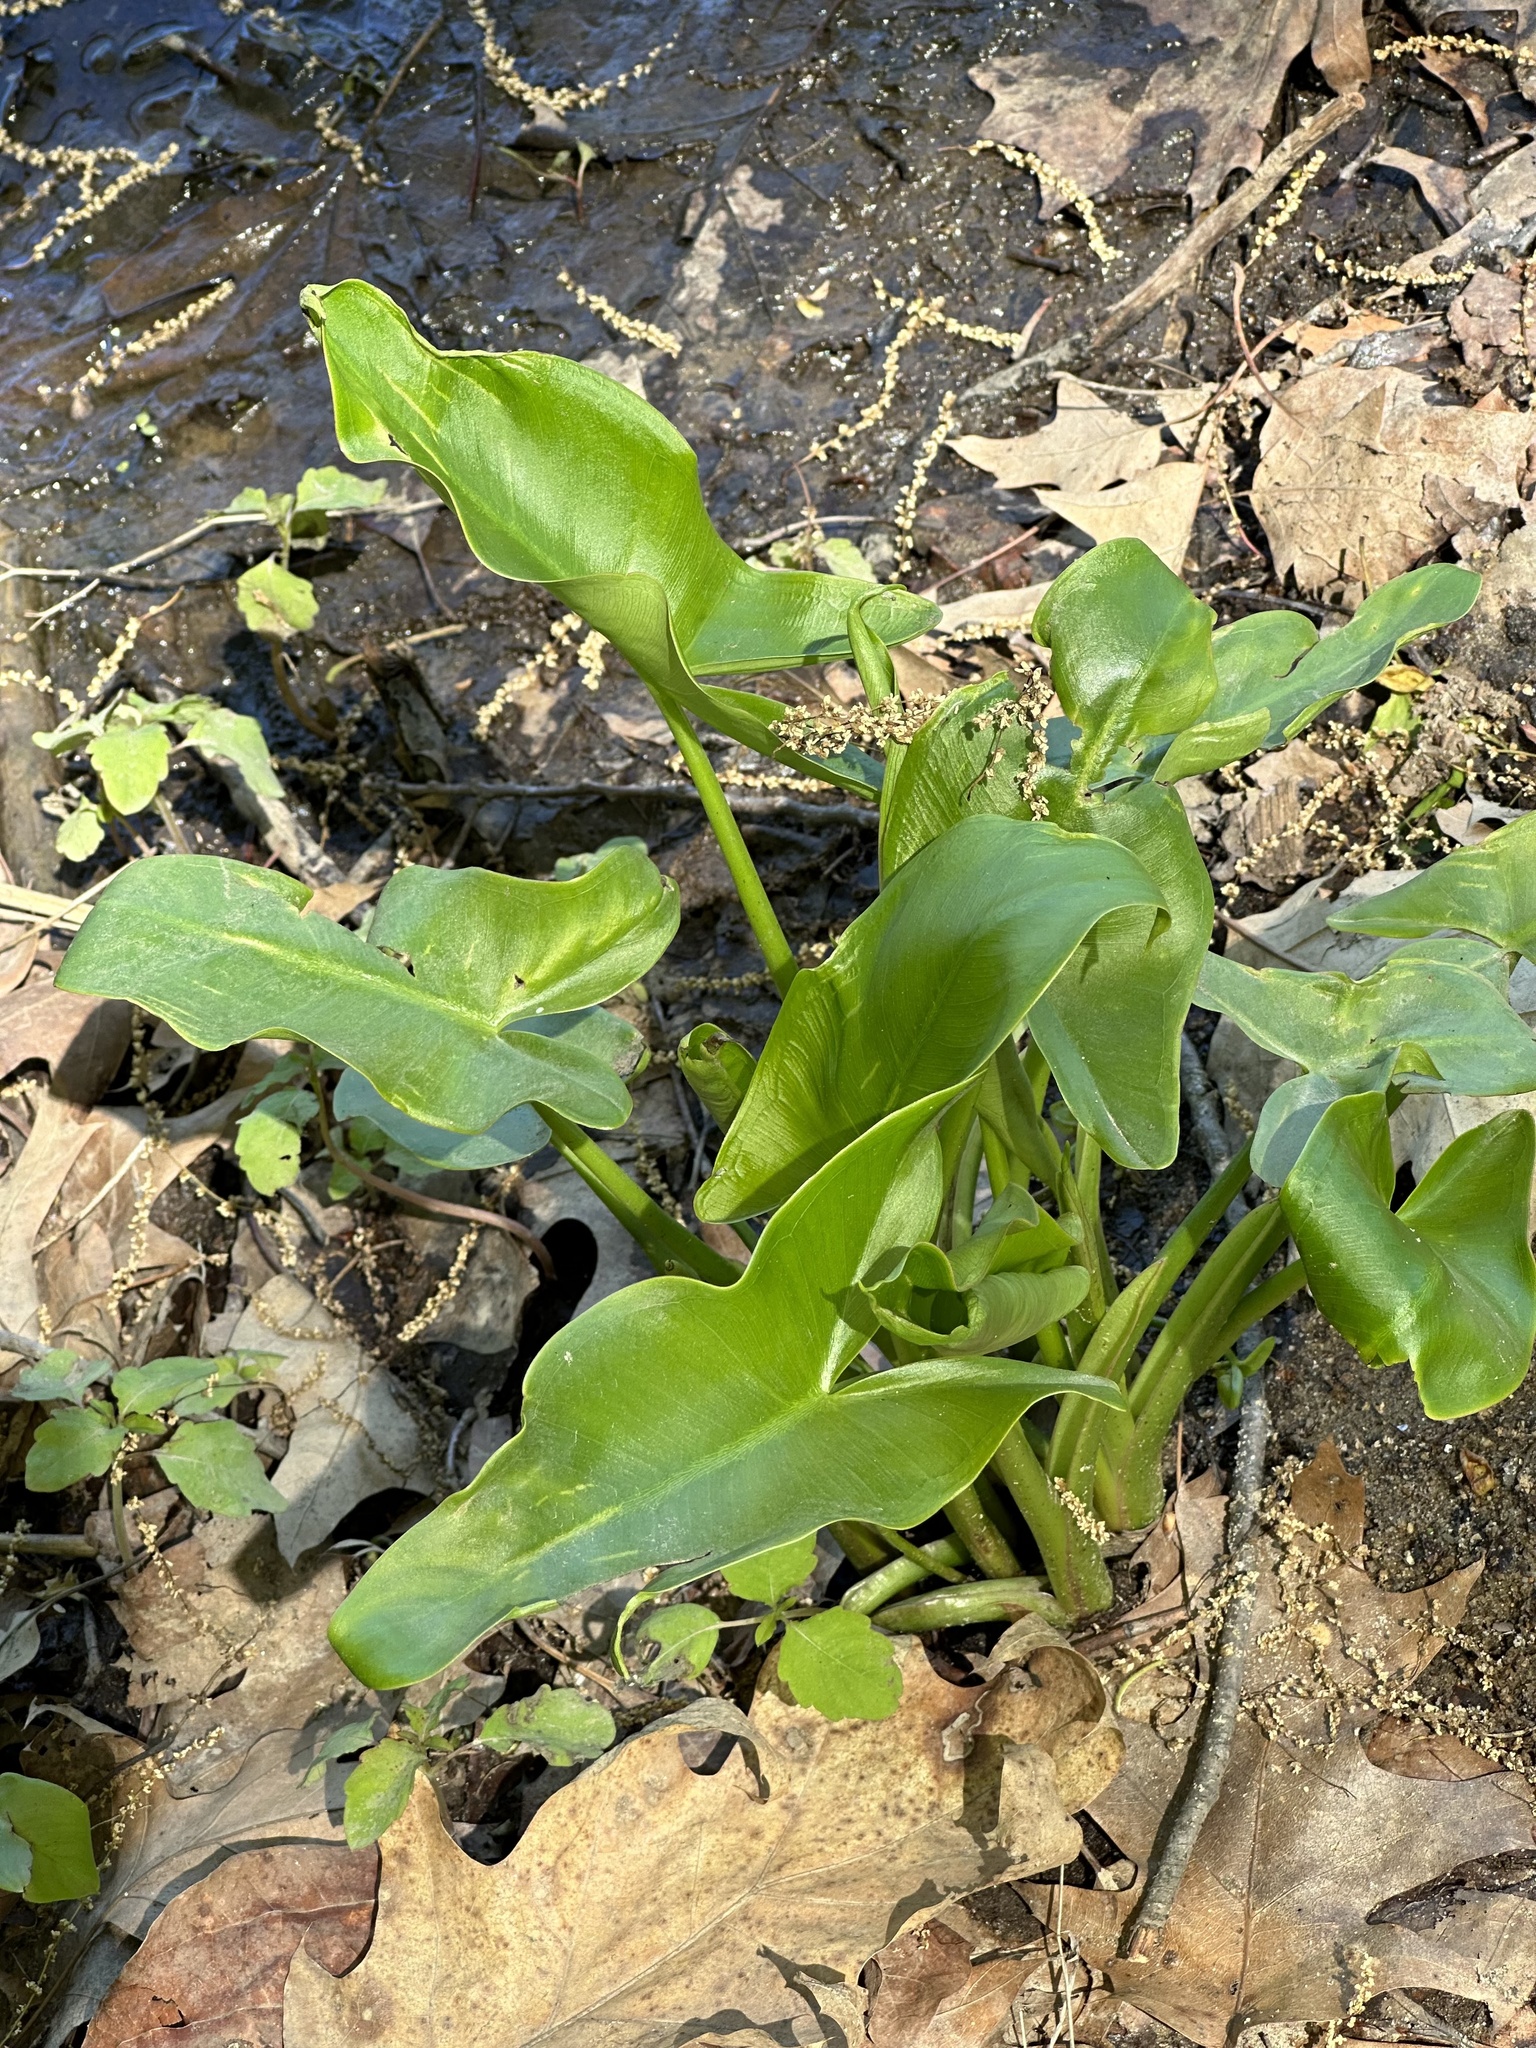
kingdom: Plantae
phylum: Tracheophyta
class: Liliopsida
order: Alismatales
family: Araceae
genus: Peltandra
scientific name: Peltandra virginica
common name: Arrow arum
